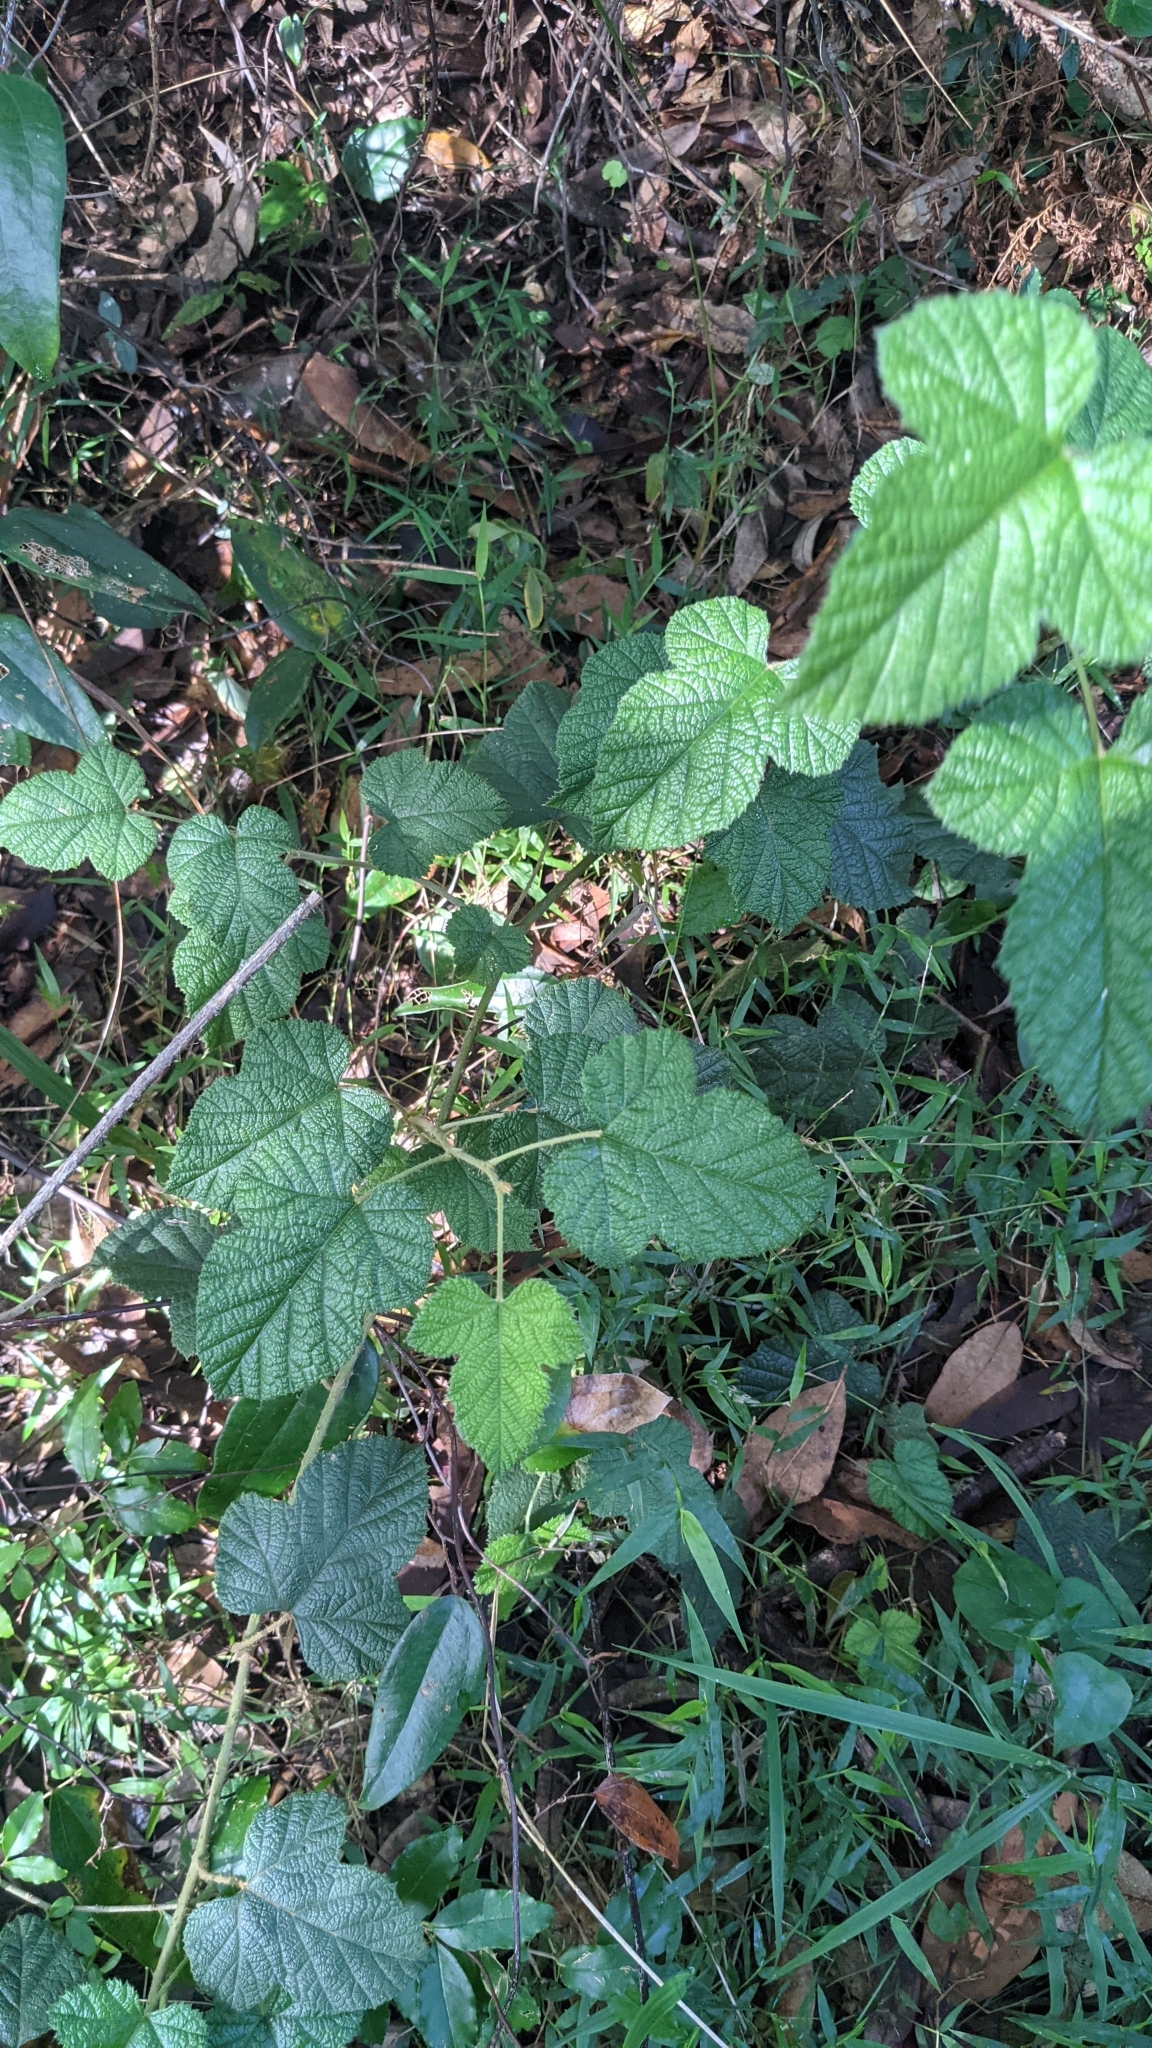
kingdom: Plantae
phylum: Tracheophyta
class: Magnoliopsida
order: Rosales
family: Rosaceae
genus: Rubus
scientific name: Rubus moluccanus
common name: Wild raspberry
